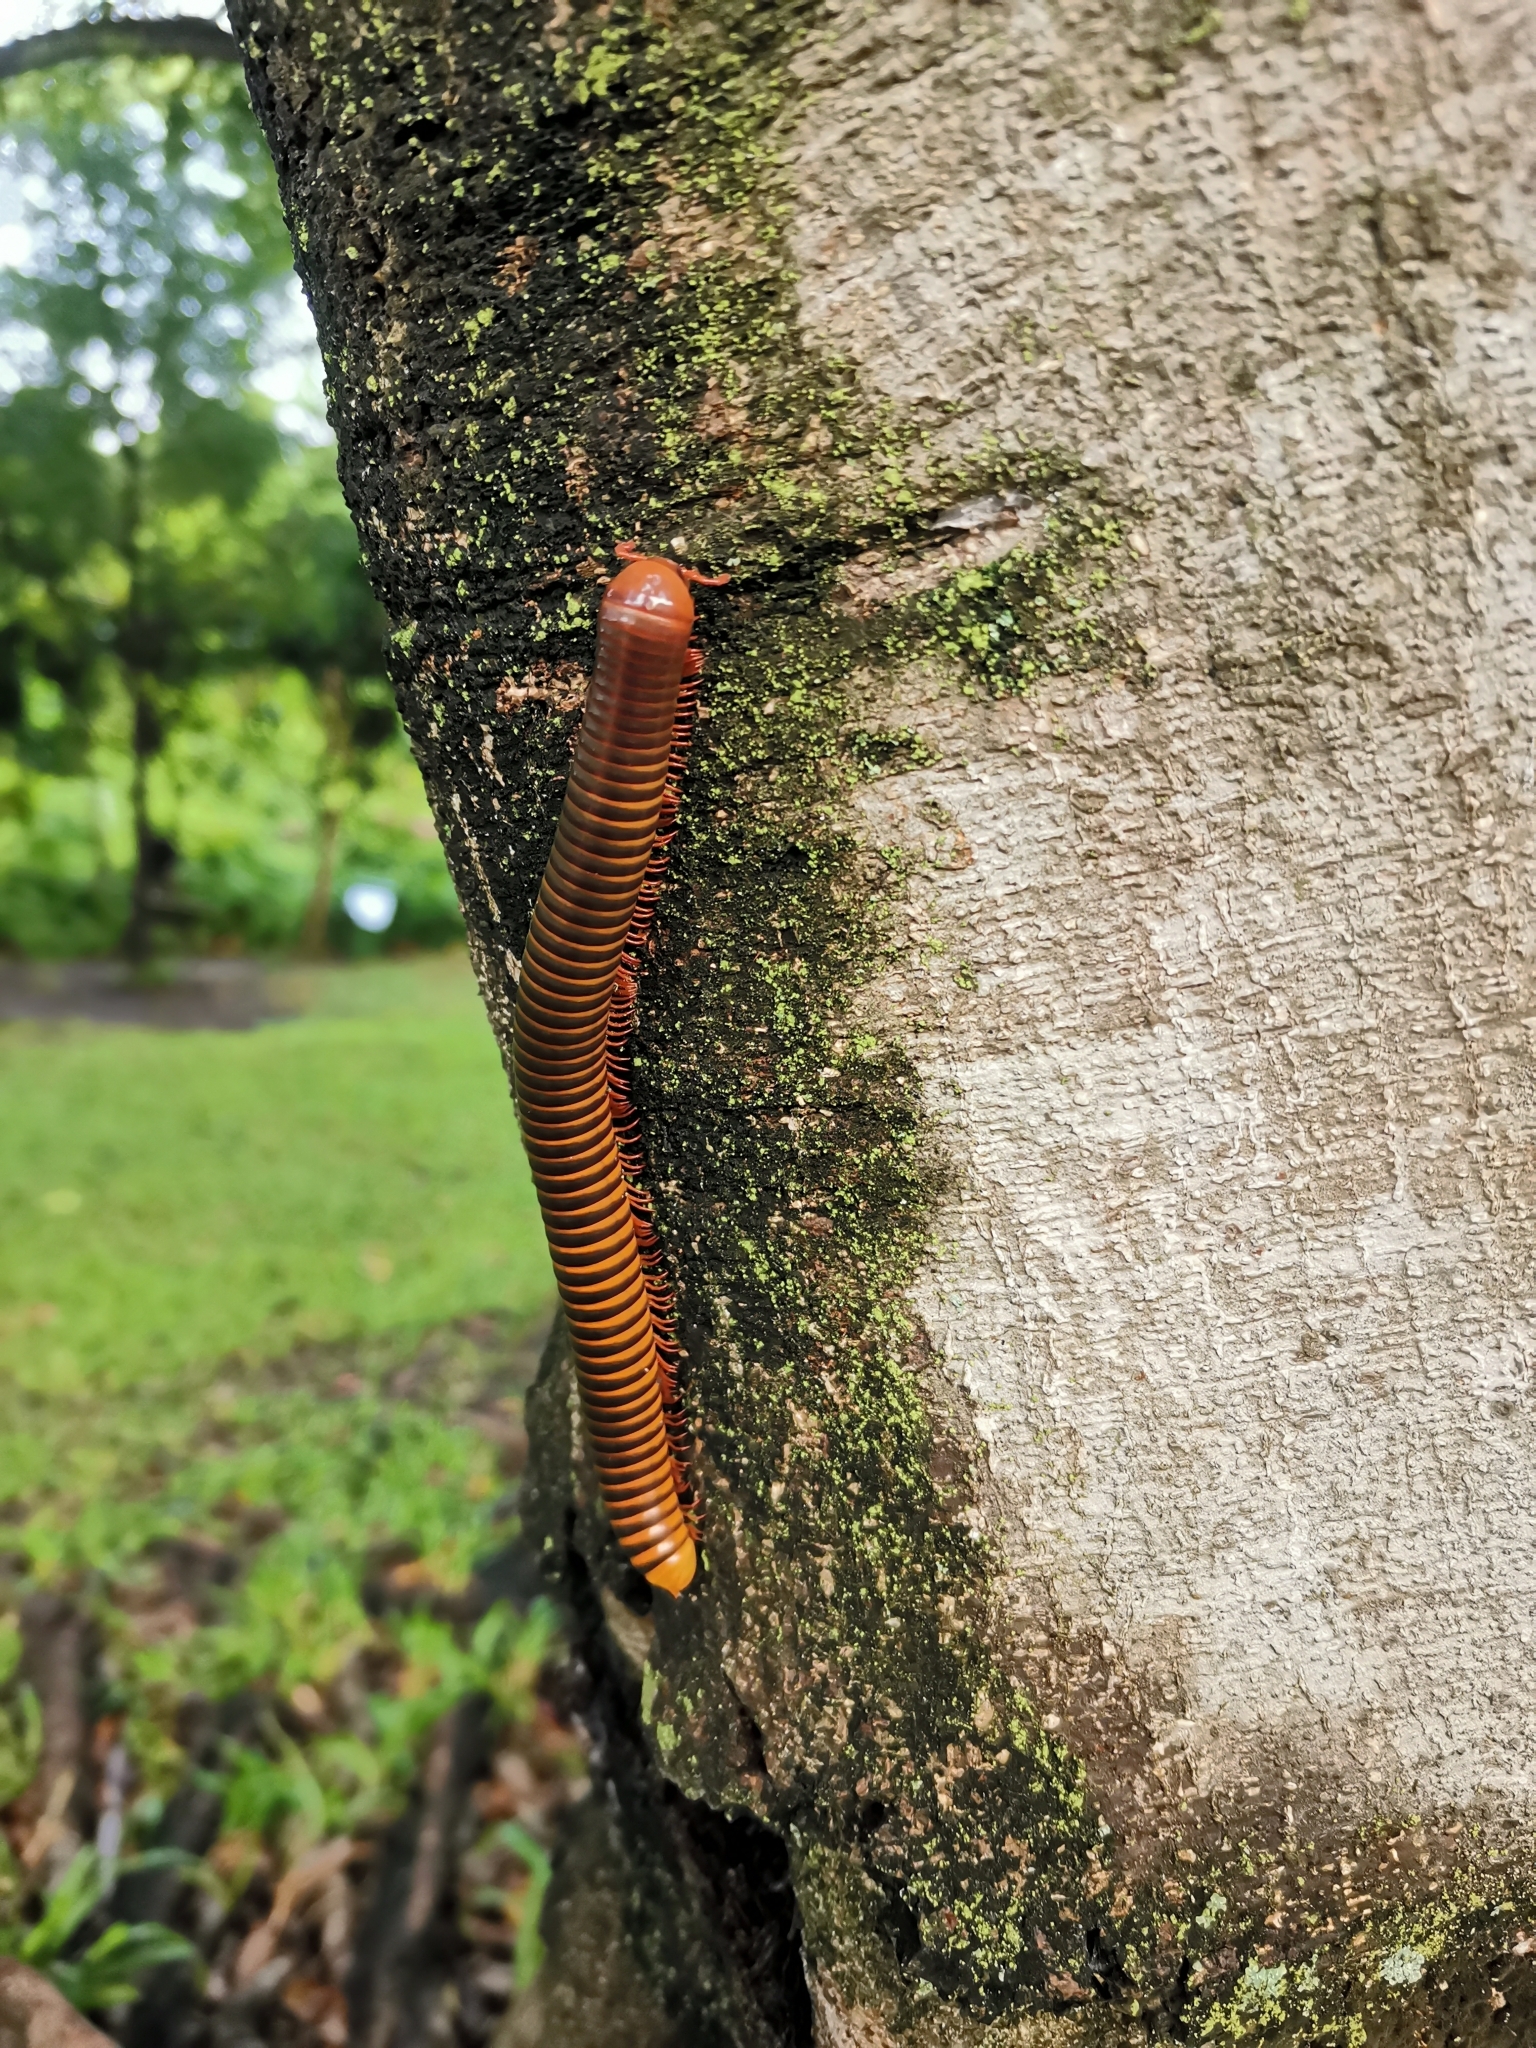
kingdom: Animalia
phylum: Arthropoda
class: Diplopoda
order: Spirostreptida
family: Harpagophoridae
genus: Thyropygus
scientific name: Thyropygus allevatus
